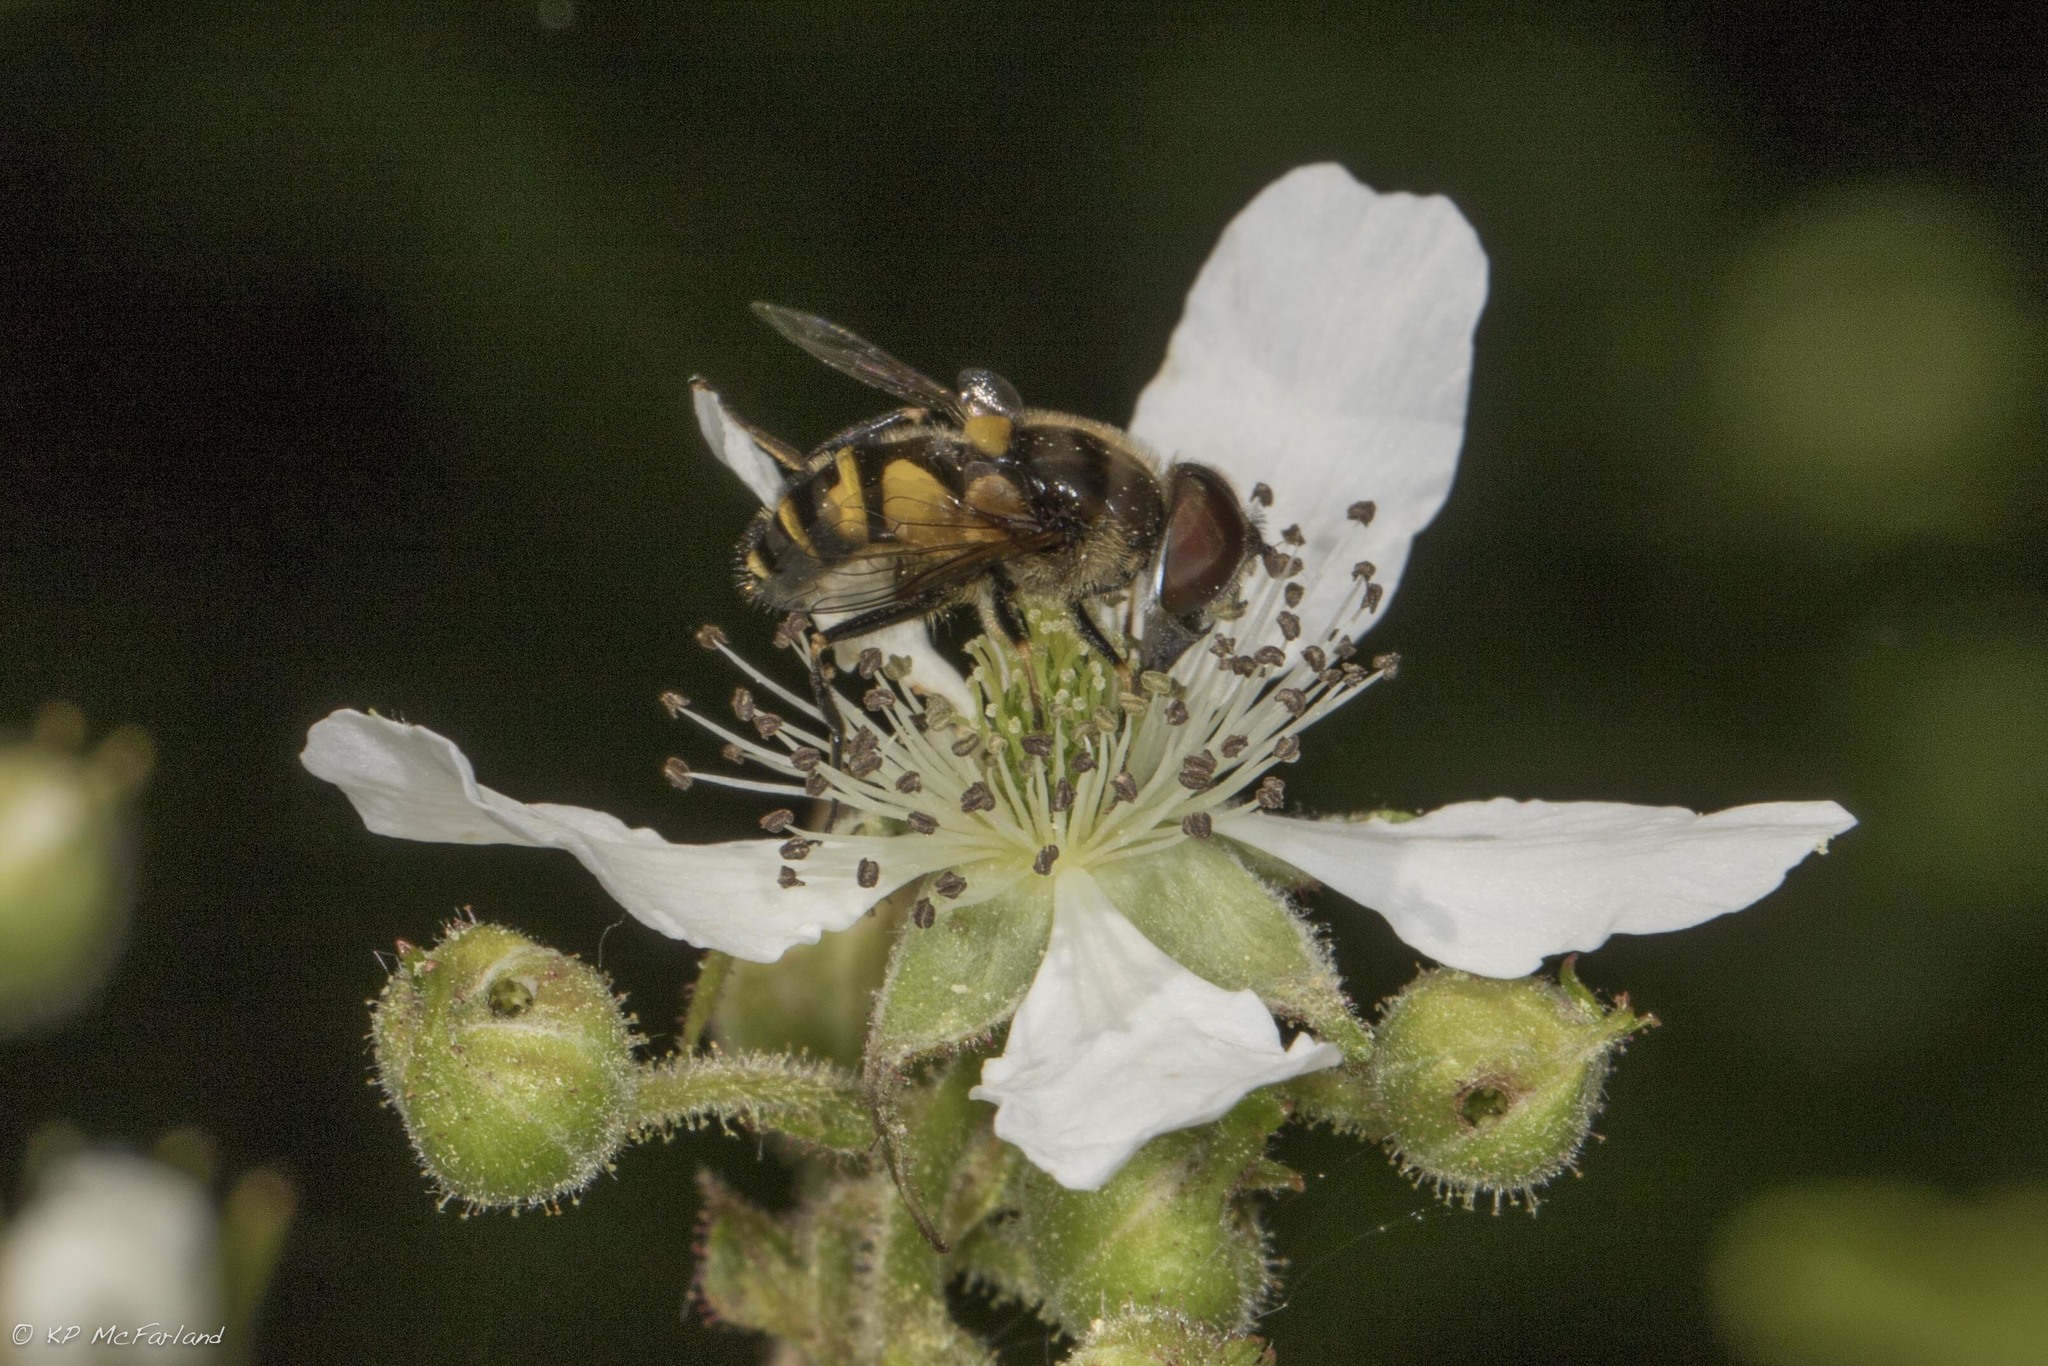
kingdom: Plantae
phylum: Tracheophyta
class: Magnoliopsida
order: Rosales
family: Rosaceae
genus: Rubus
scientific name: Rubus occidentalis
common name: Black raspberry
